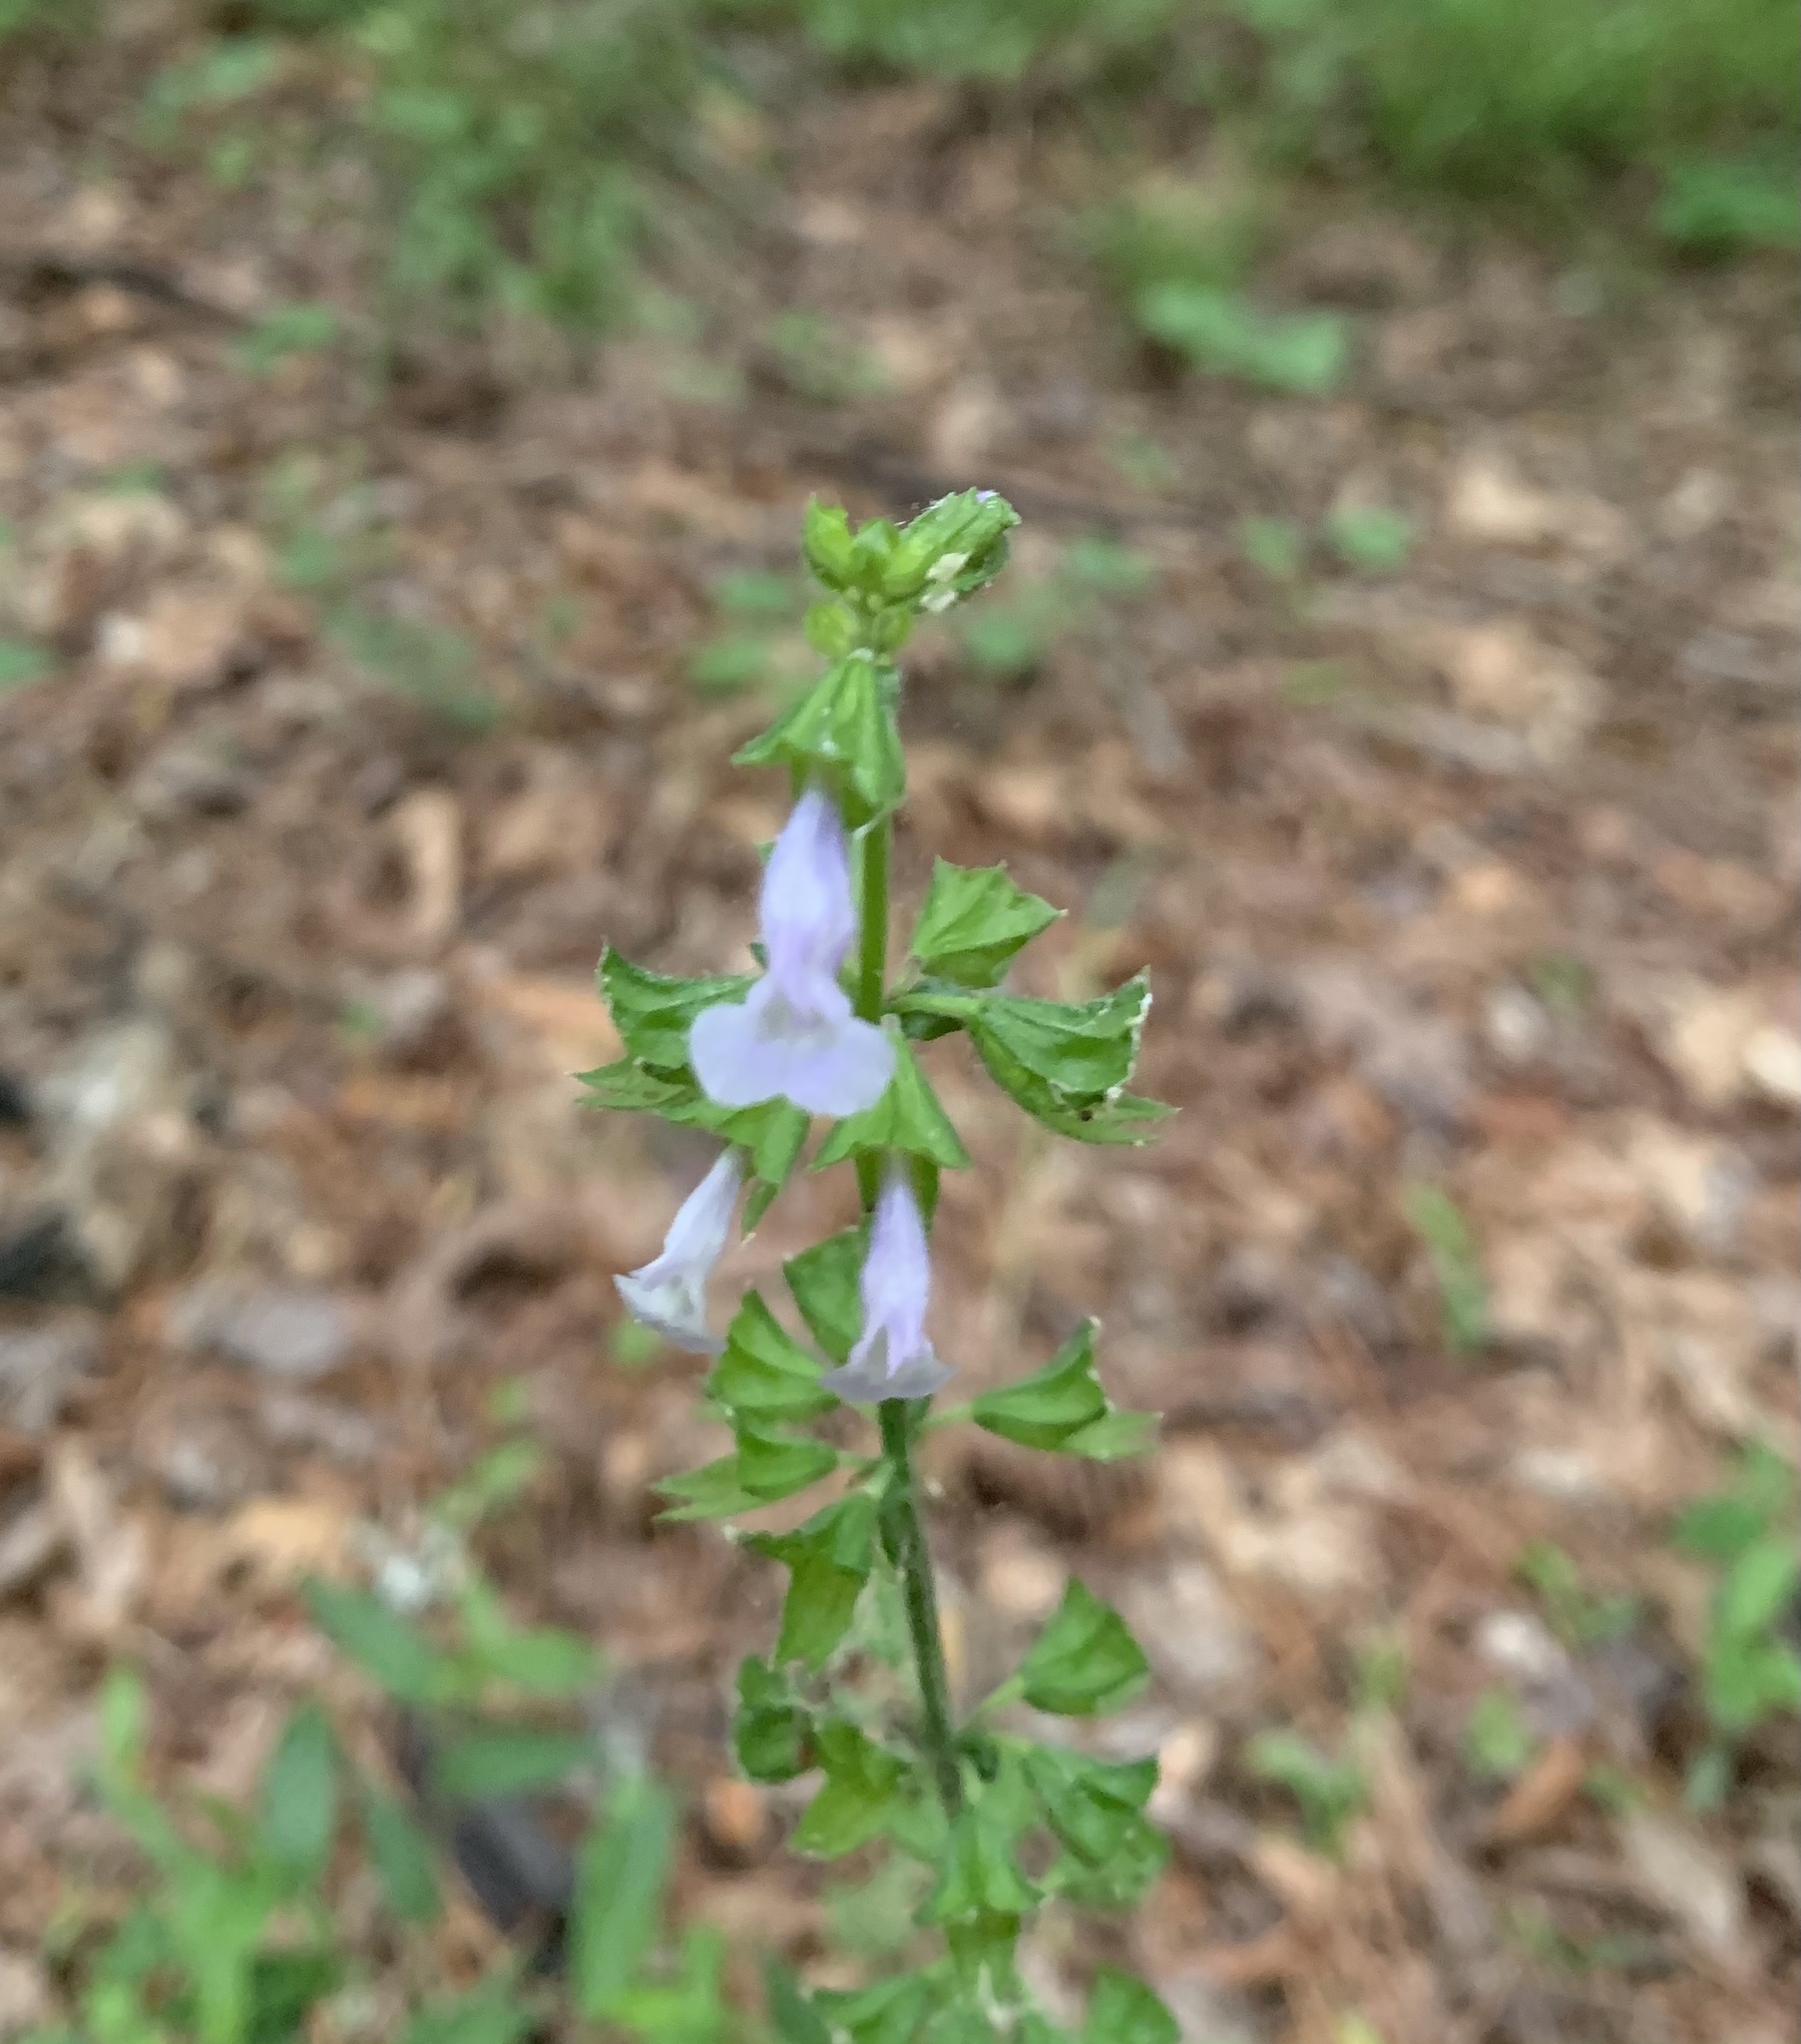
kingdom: Plantae
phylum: Tracheophyta
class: Magnoliopsida
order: Lamiales
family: Lamiaceae
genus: Salvia
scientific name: Salvia lyrata
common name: Cancerweed
